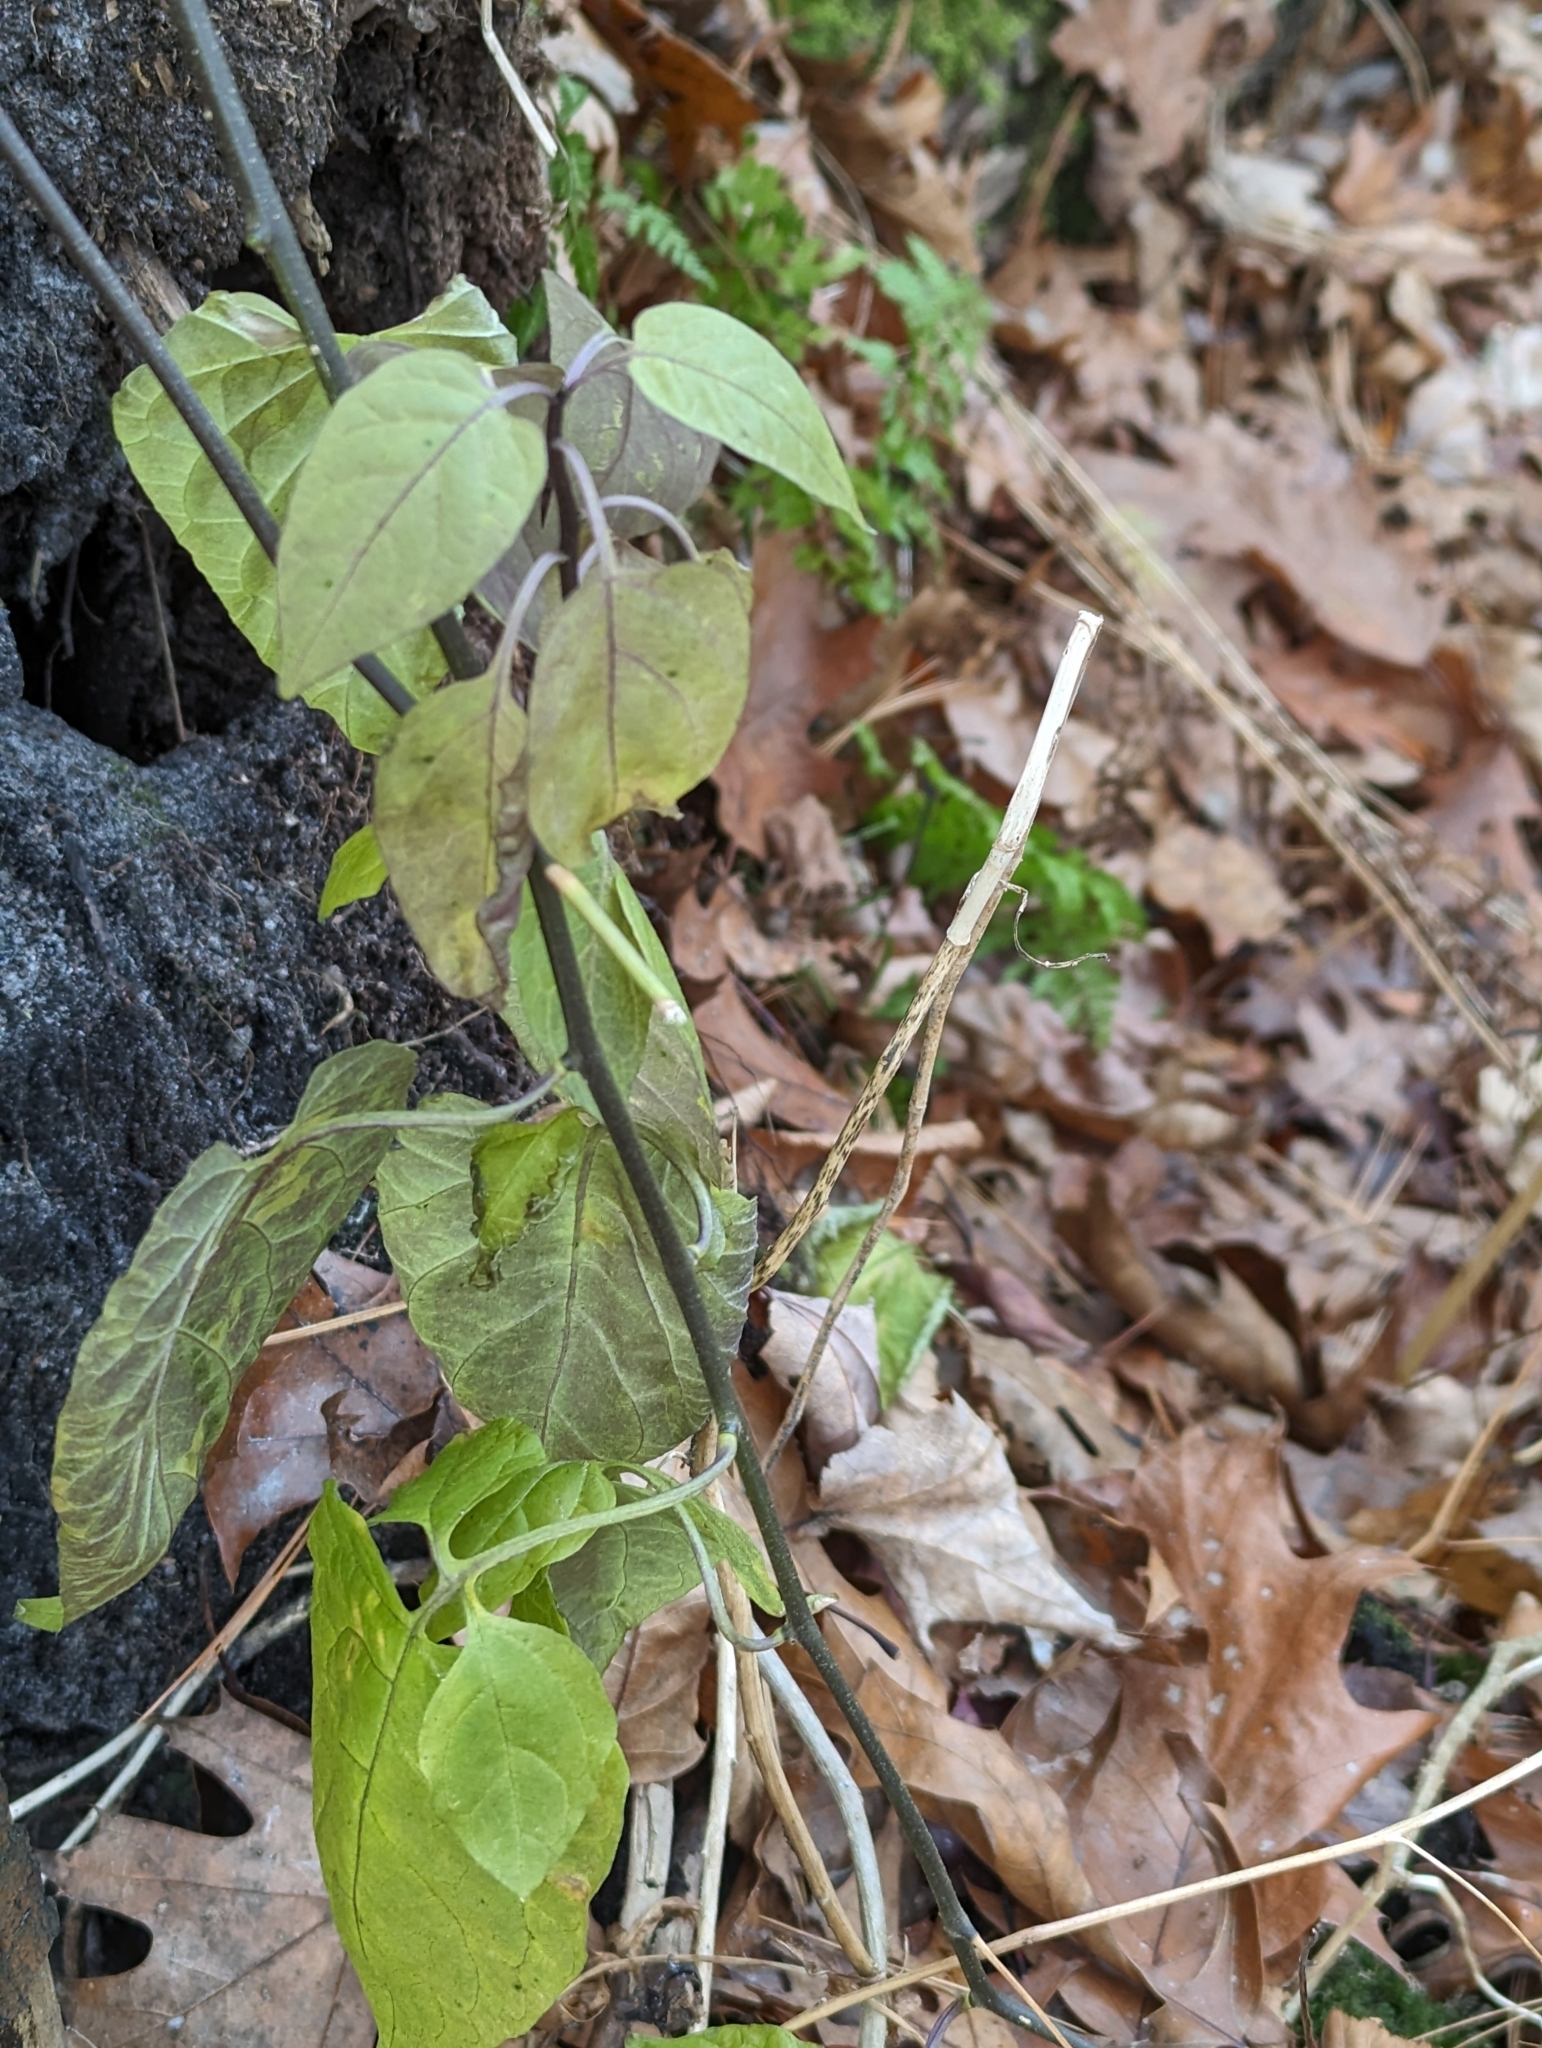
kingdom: Plantae
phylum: Tracheophyta
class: Magnoliopsida
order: Solanales
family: Solanaceae
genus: Solanum
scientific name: Solanum dulcamara
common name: Climbing nightshade
